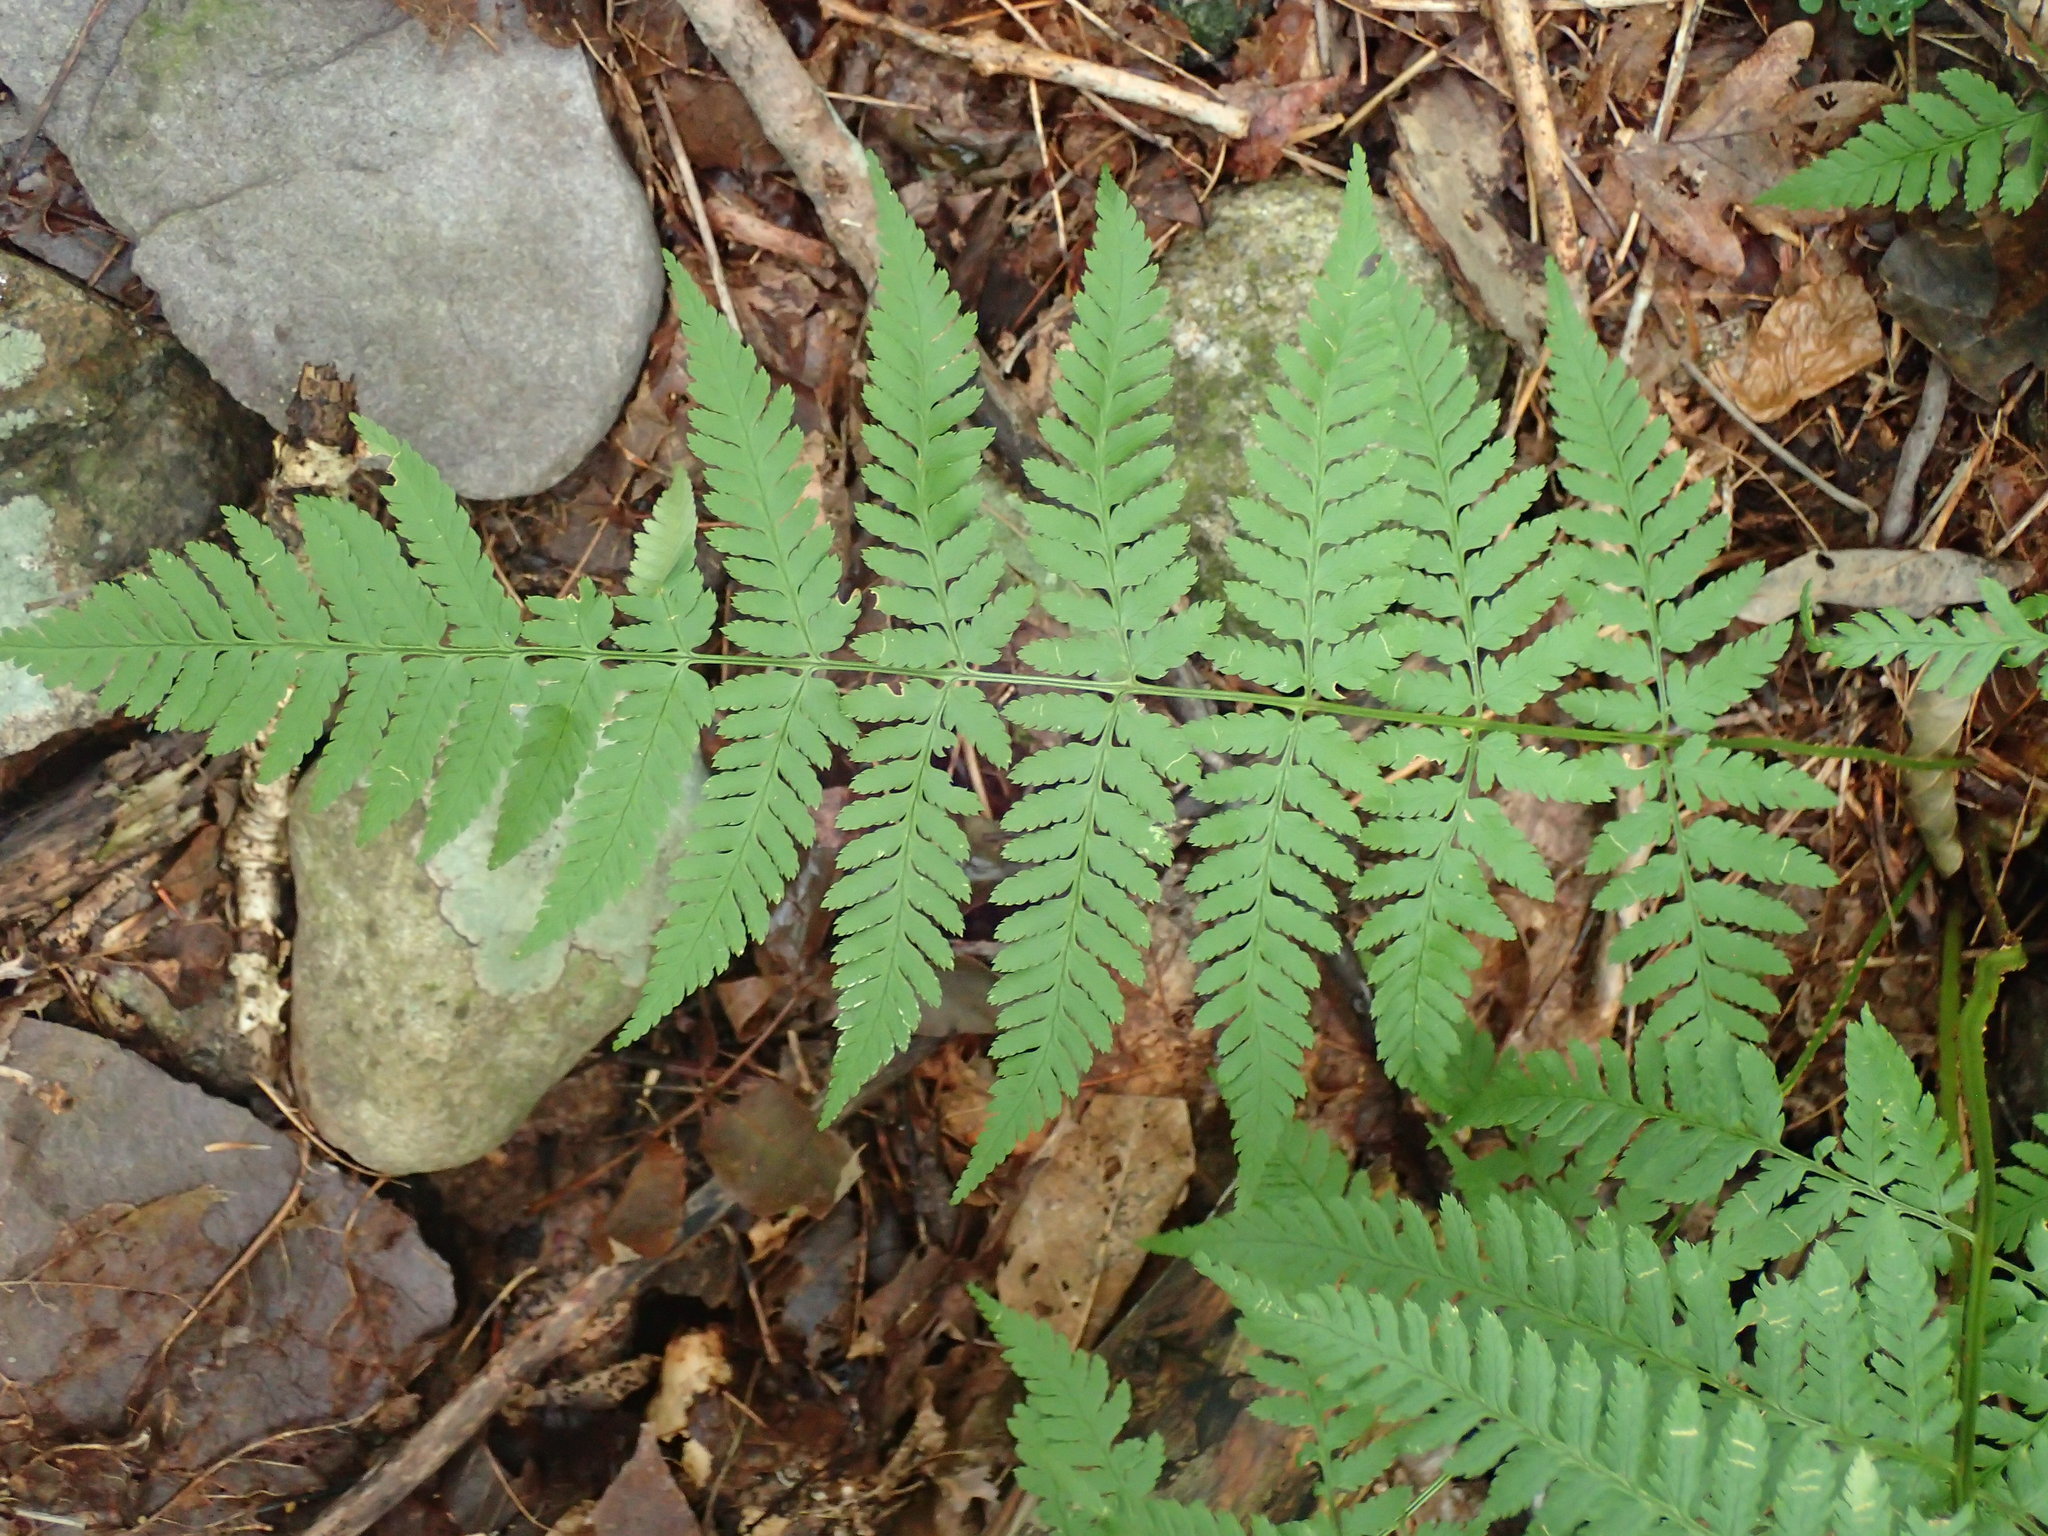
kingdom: Plantae
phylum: Tracheophyta
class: Polypodiopsida
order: Polypodiales
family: Dryopteridaceae
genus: Dryopteris
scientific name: Dryopteris carthusiana
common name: Narrow buckler-fern
